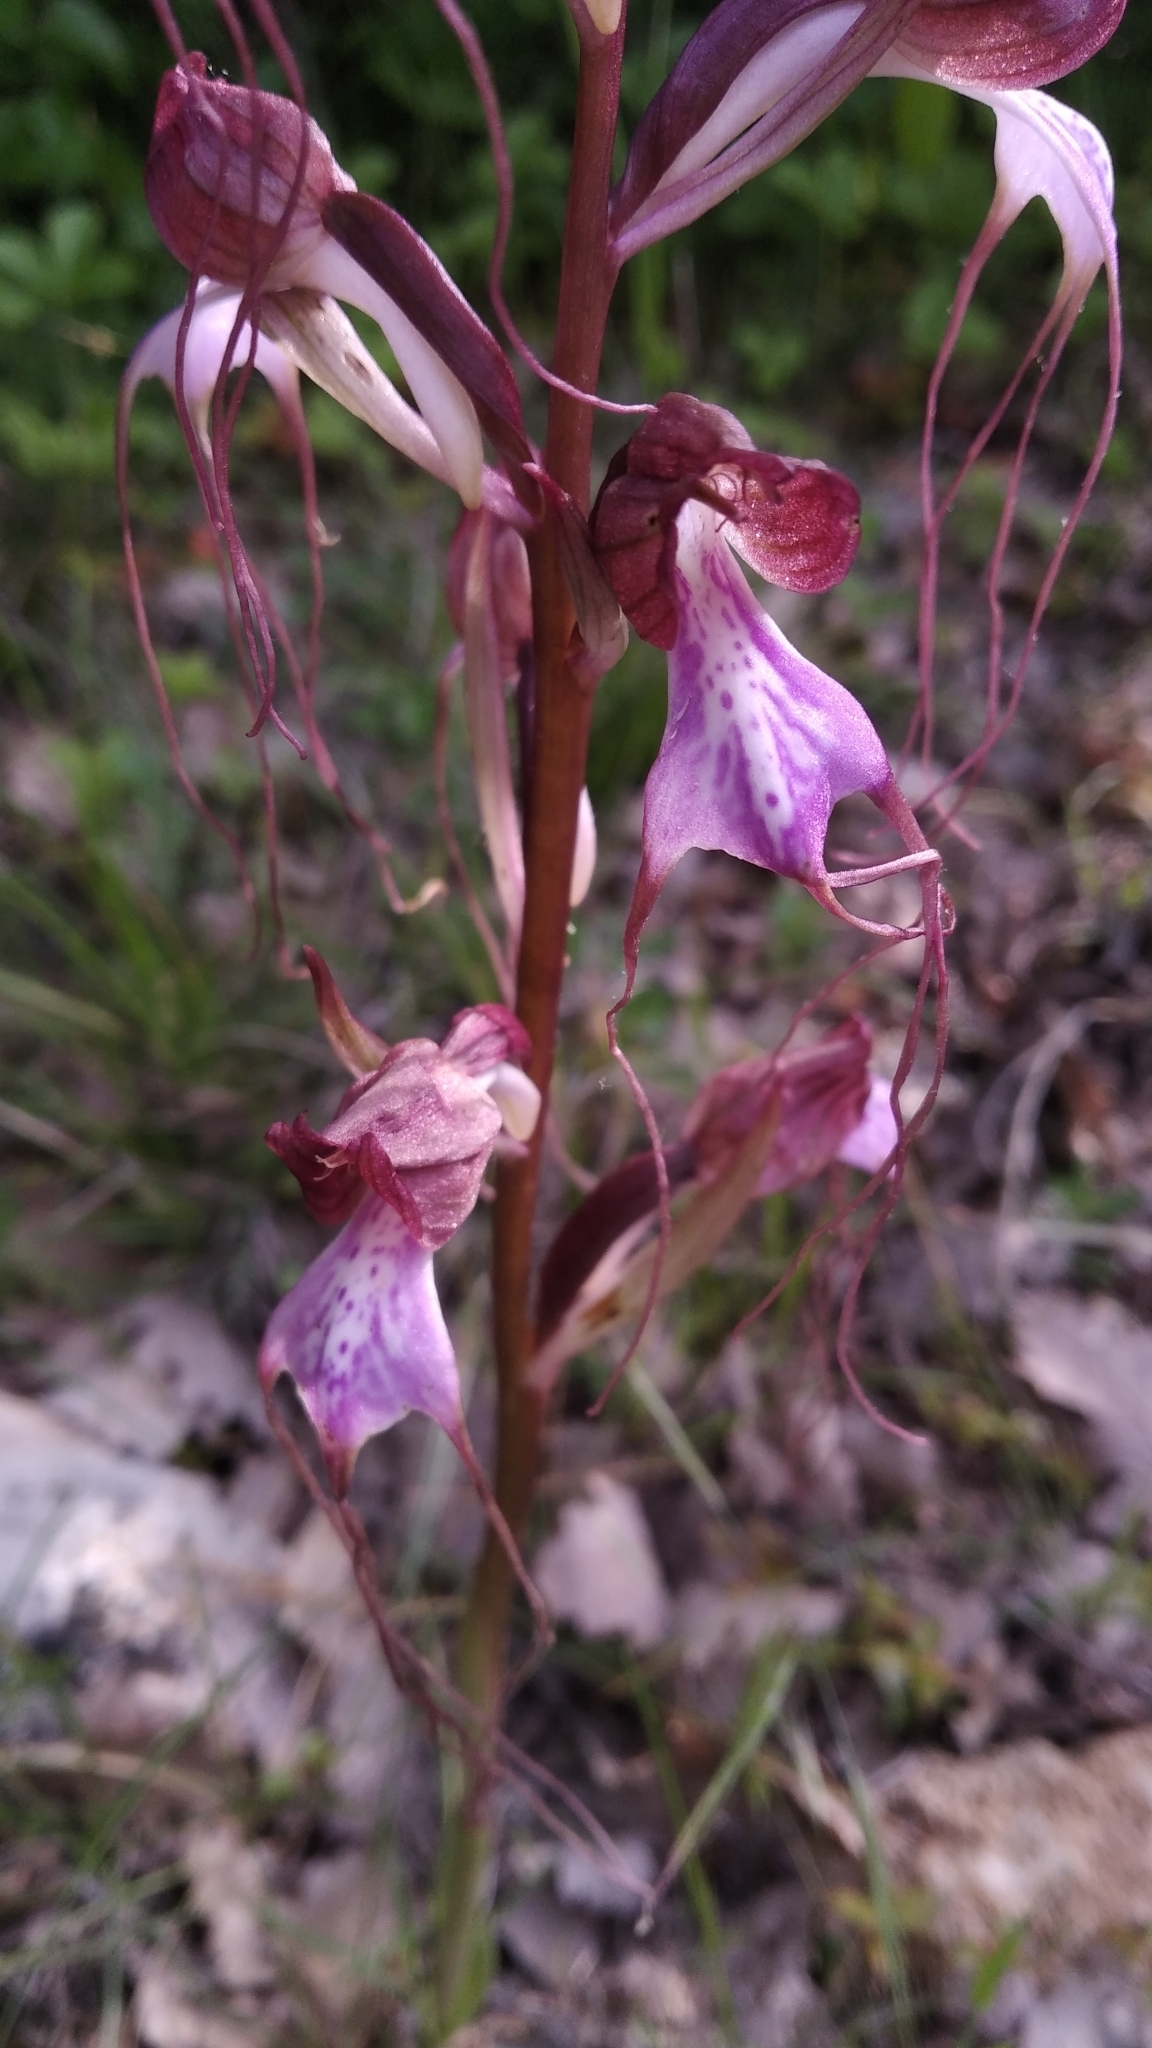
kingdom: Plantae
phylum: Tracheophyta
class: Liliopsida
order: Asparagales
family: Orchidaceae
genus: Himantoglossum
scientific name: Himantoglossum comperianum
